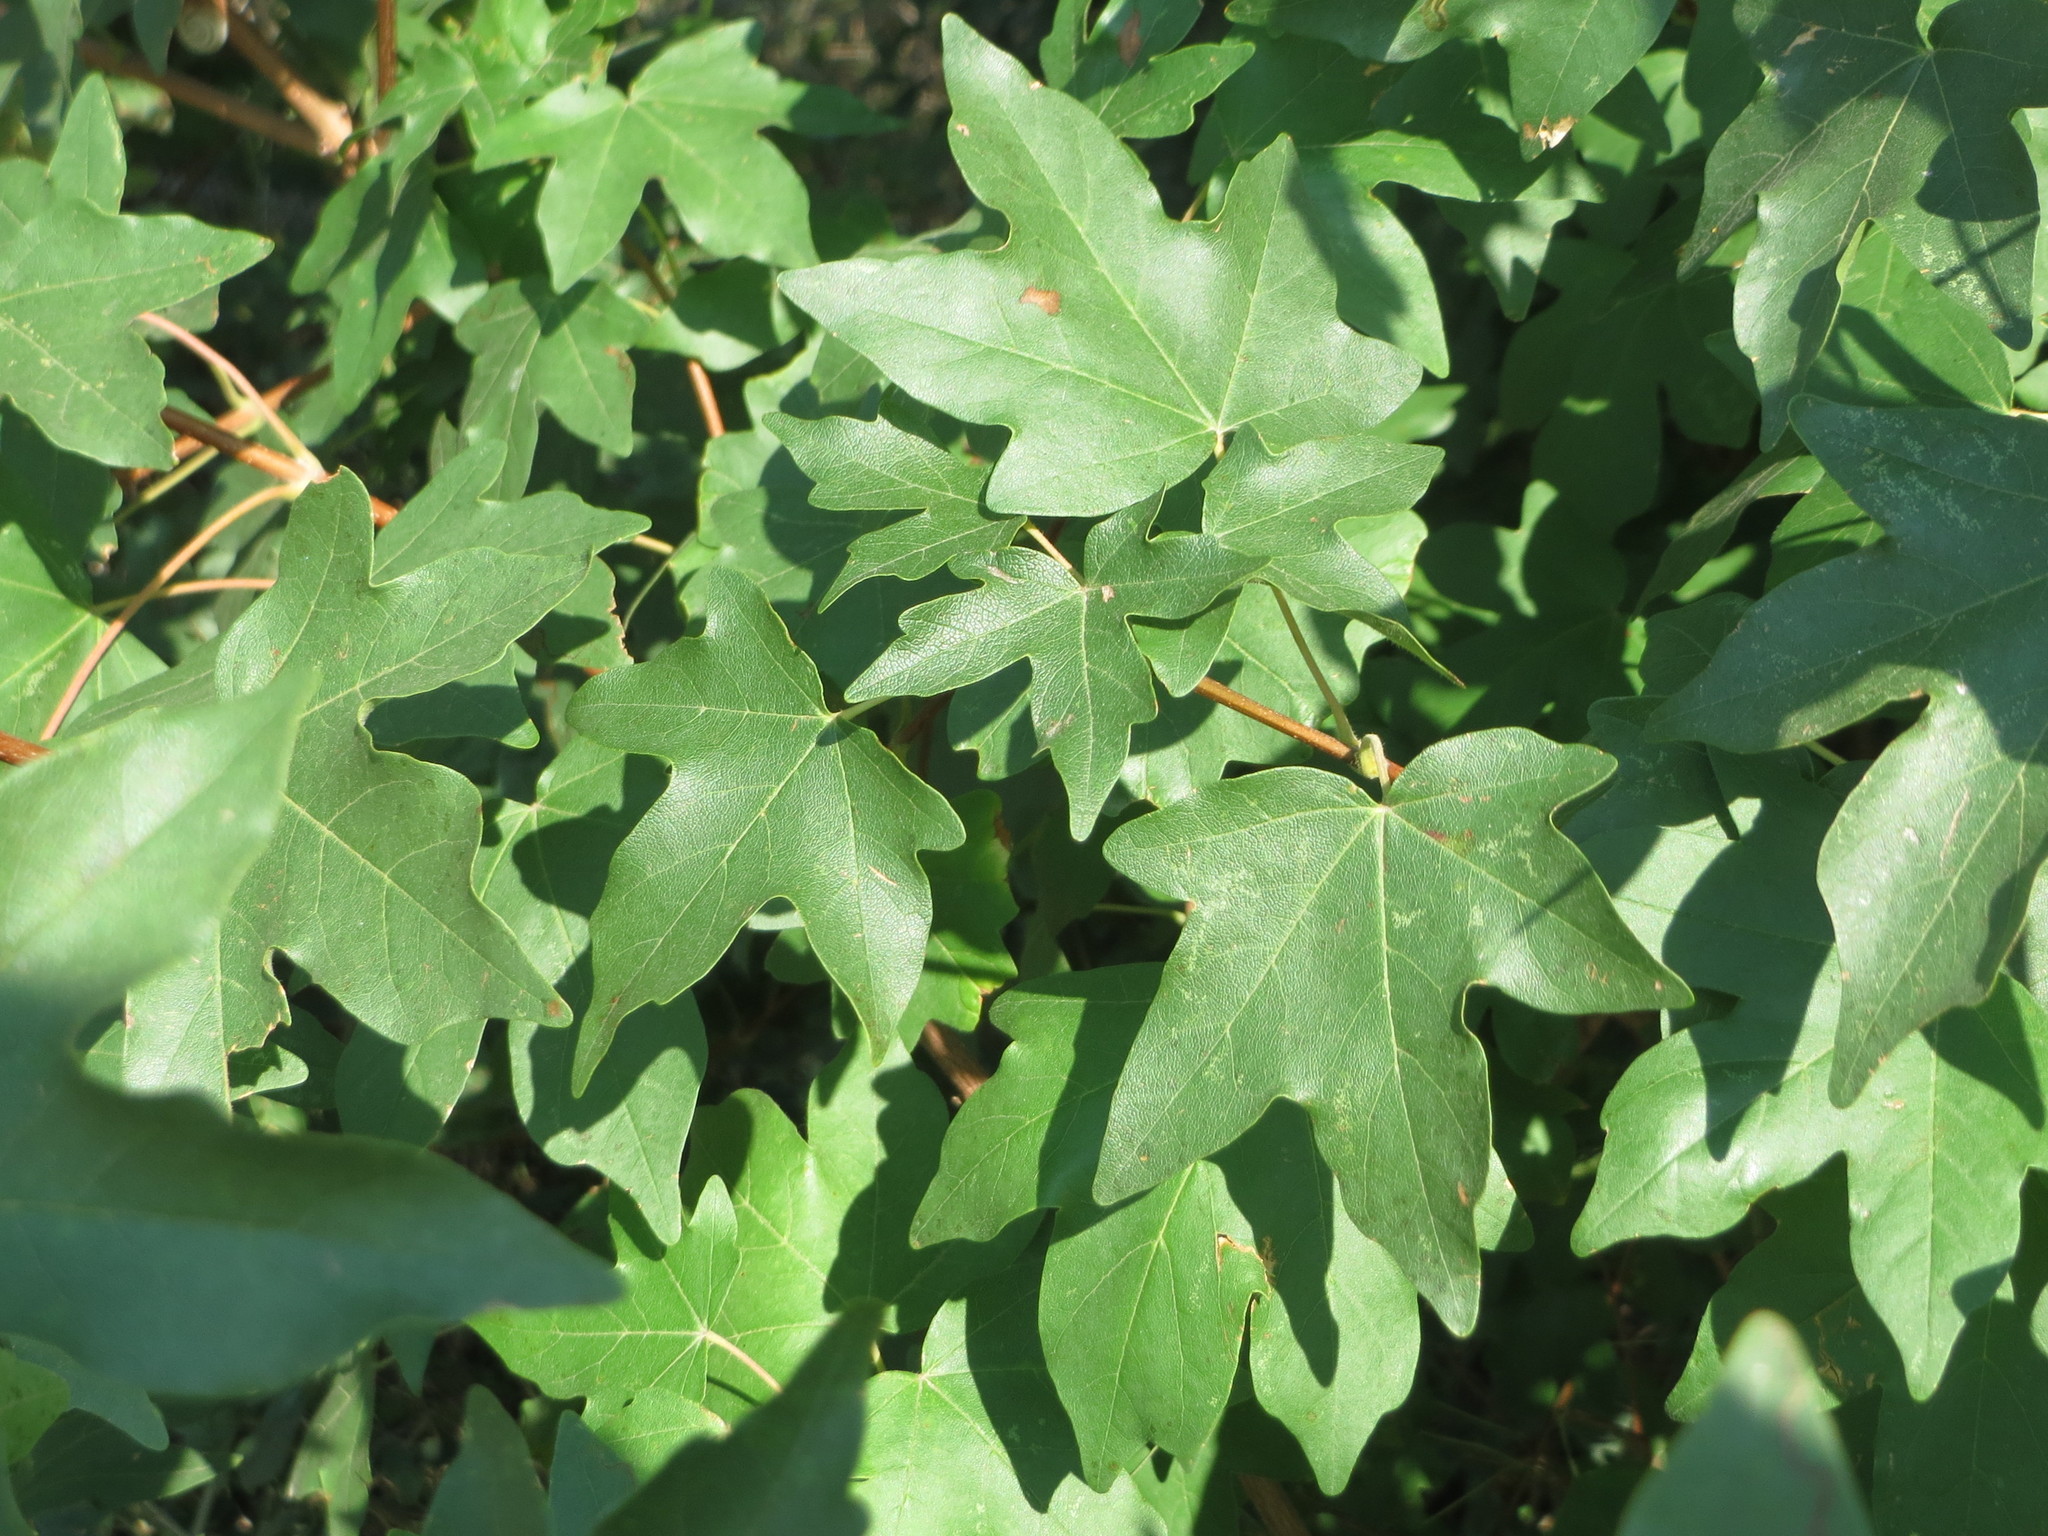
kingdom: Plantae
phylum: Tracheophyta
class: Magnoliopsida
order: Sapindales
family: Sapindaceae
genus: Acer
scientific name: Acer campestre
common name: Field maple
